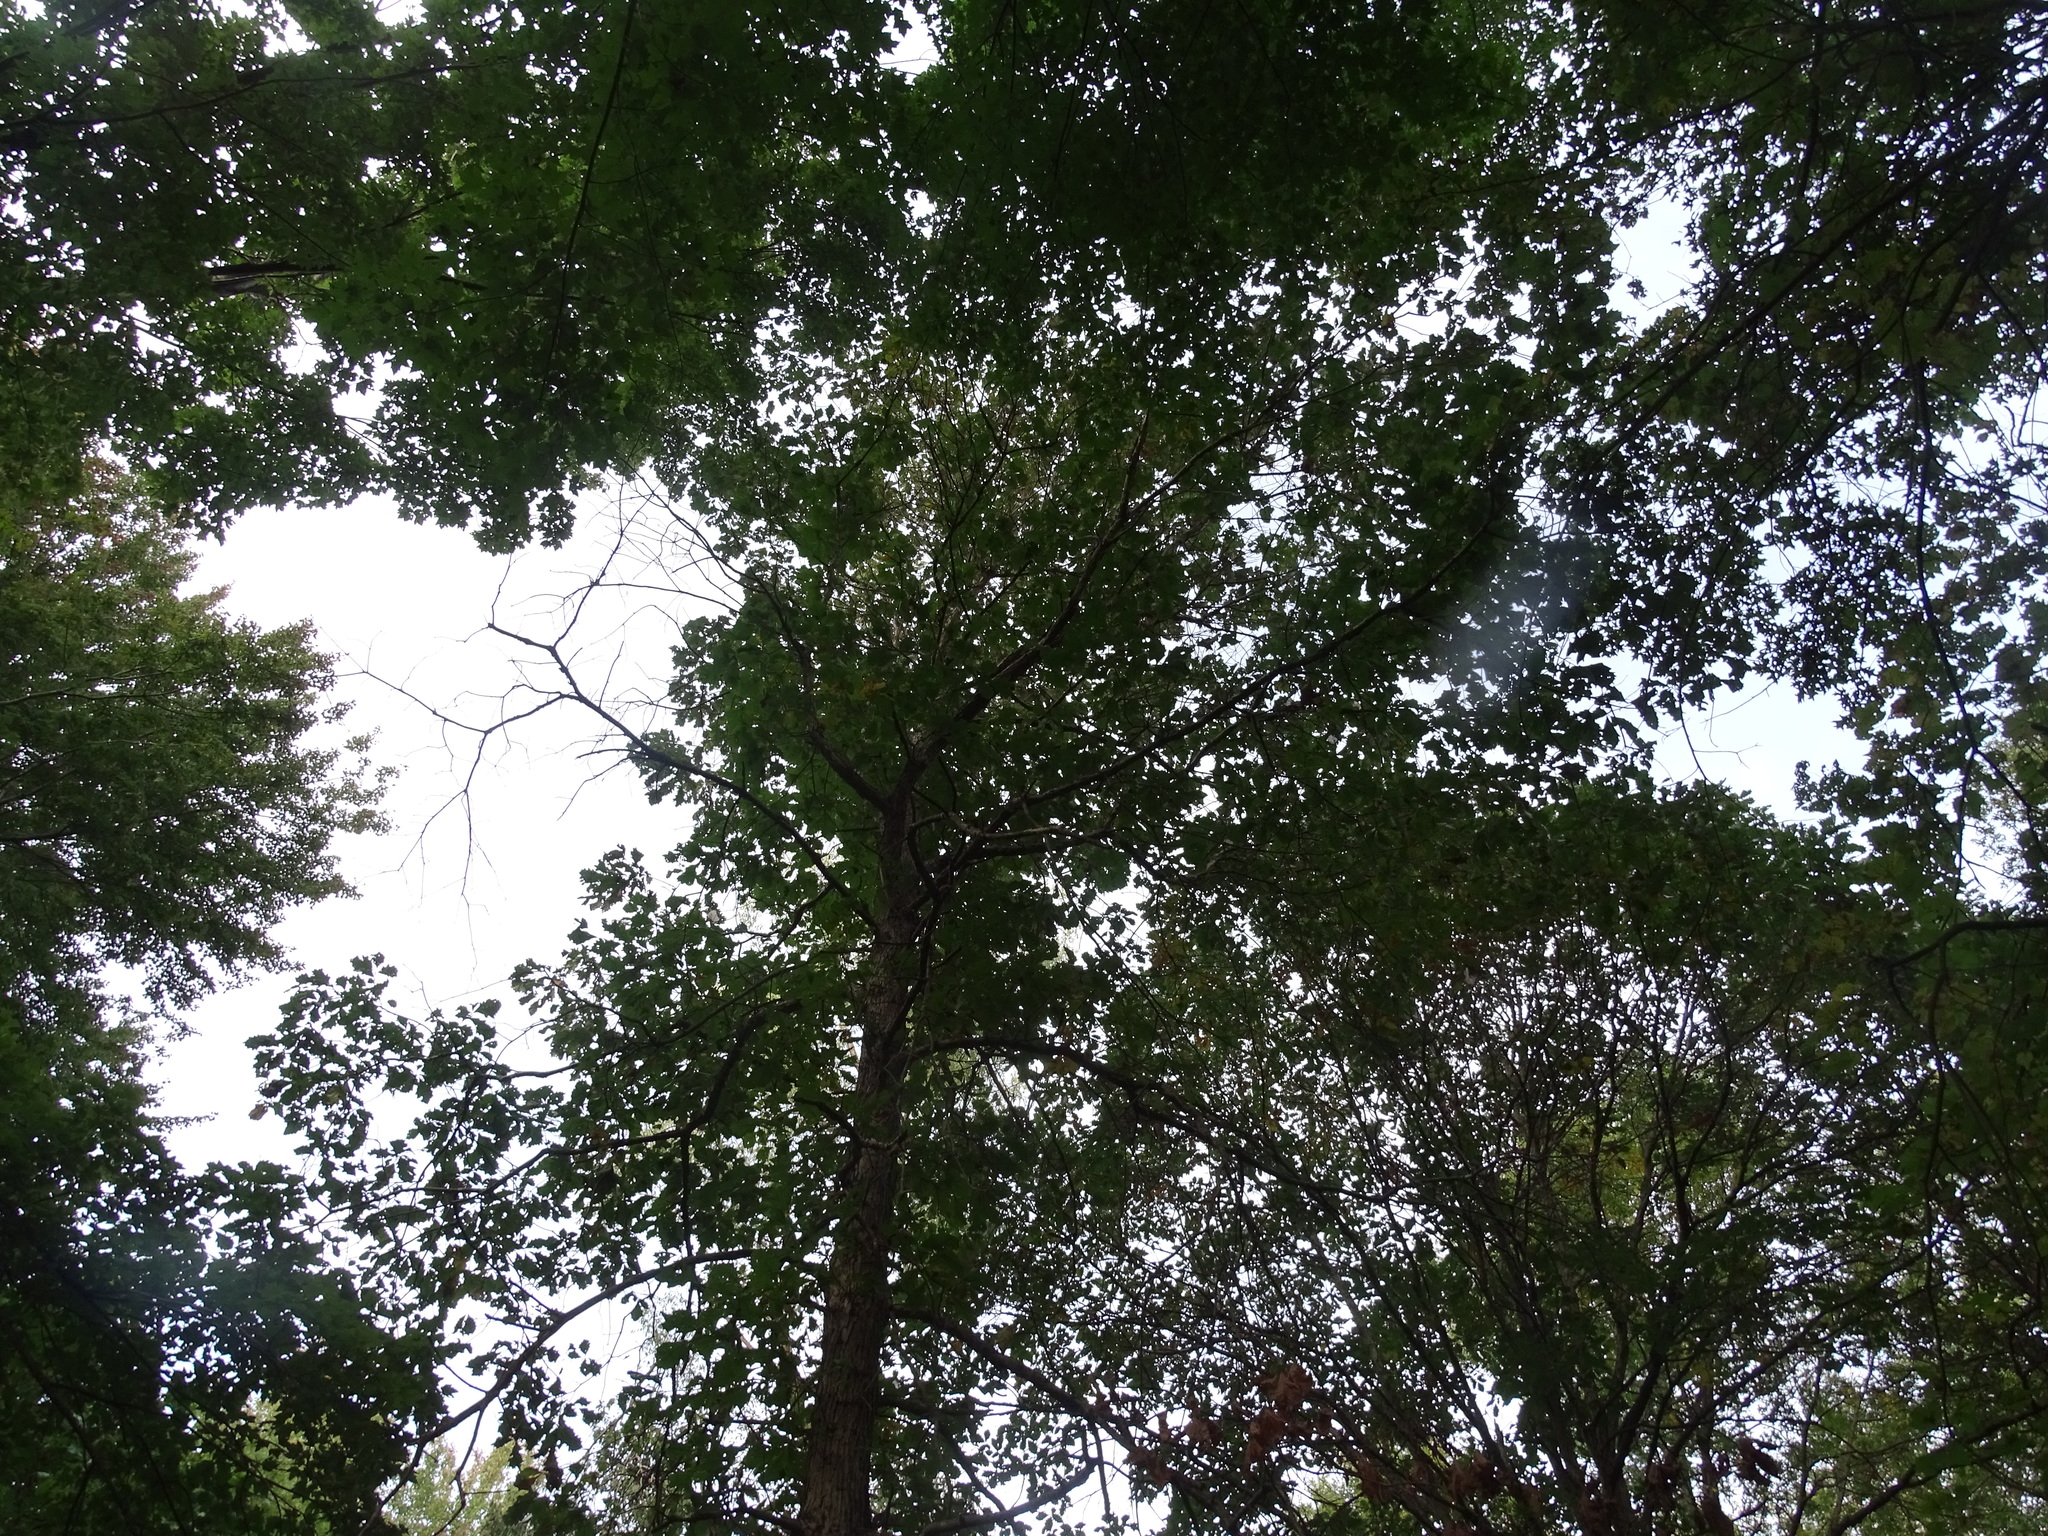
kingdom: Plantae
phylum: Tracheophyta
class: Magnoliopsida
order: Fagales
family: Fagaceae
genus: Quercus
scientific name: Quercus bicolor
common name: Swamp white oak
